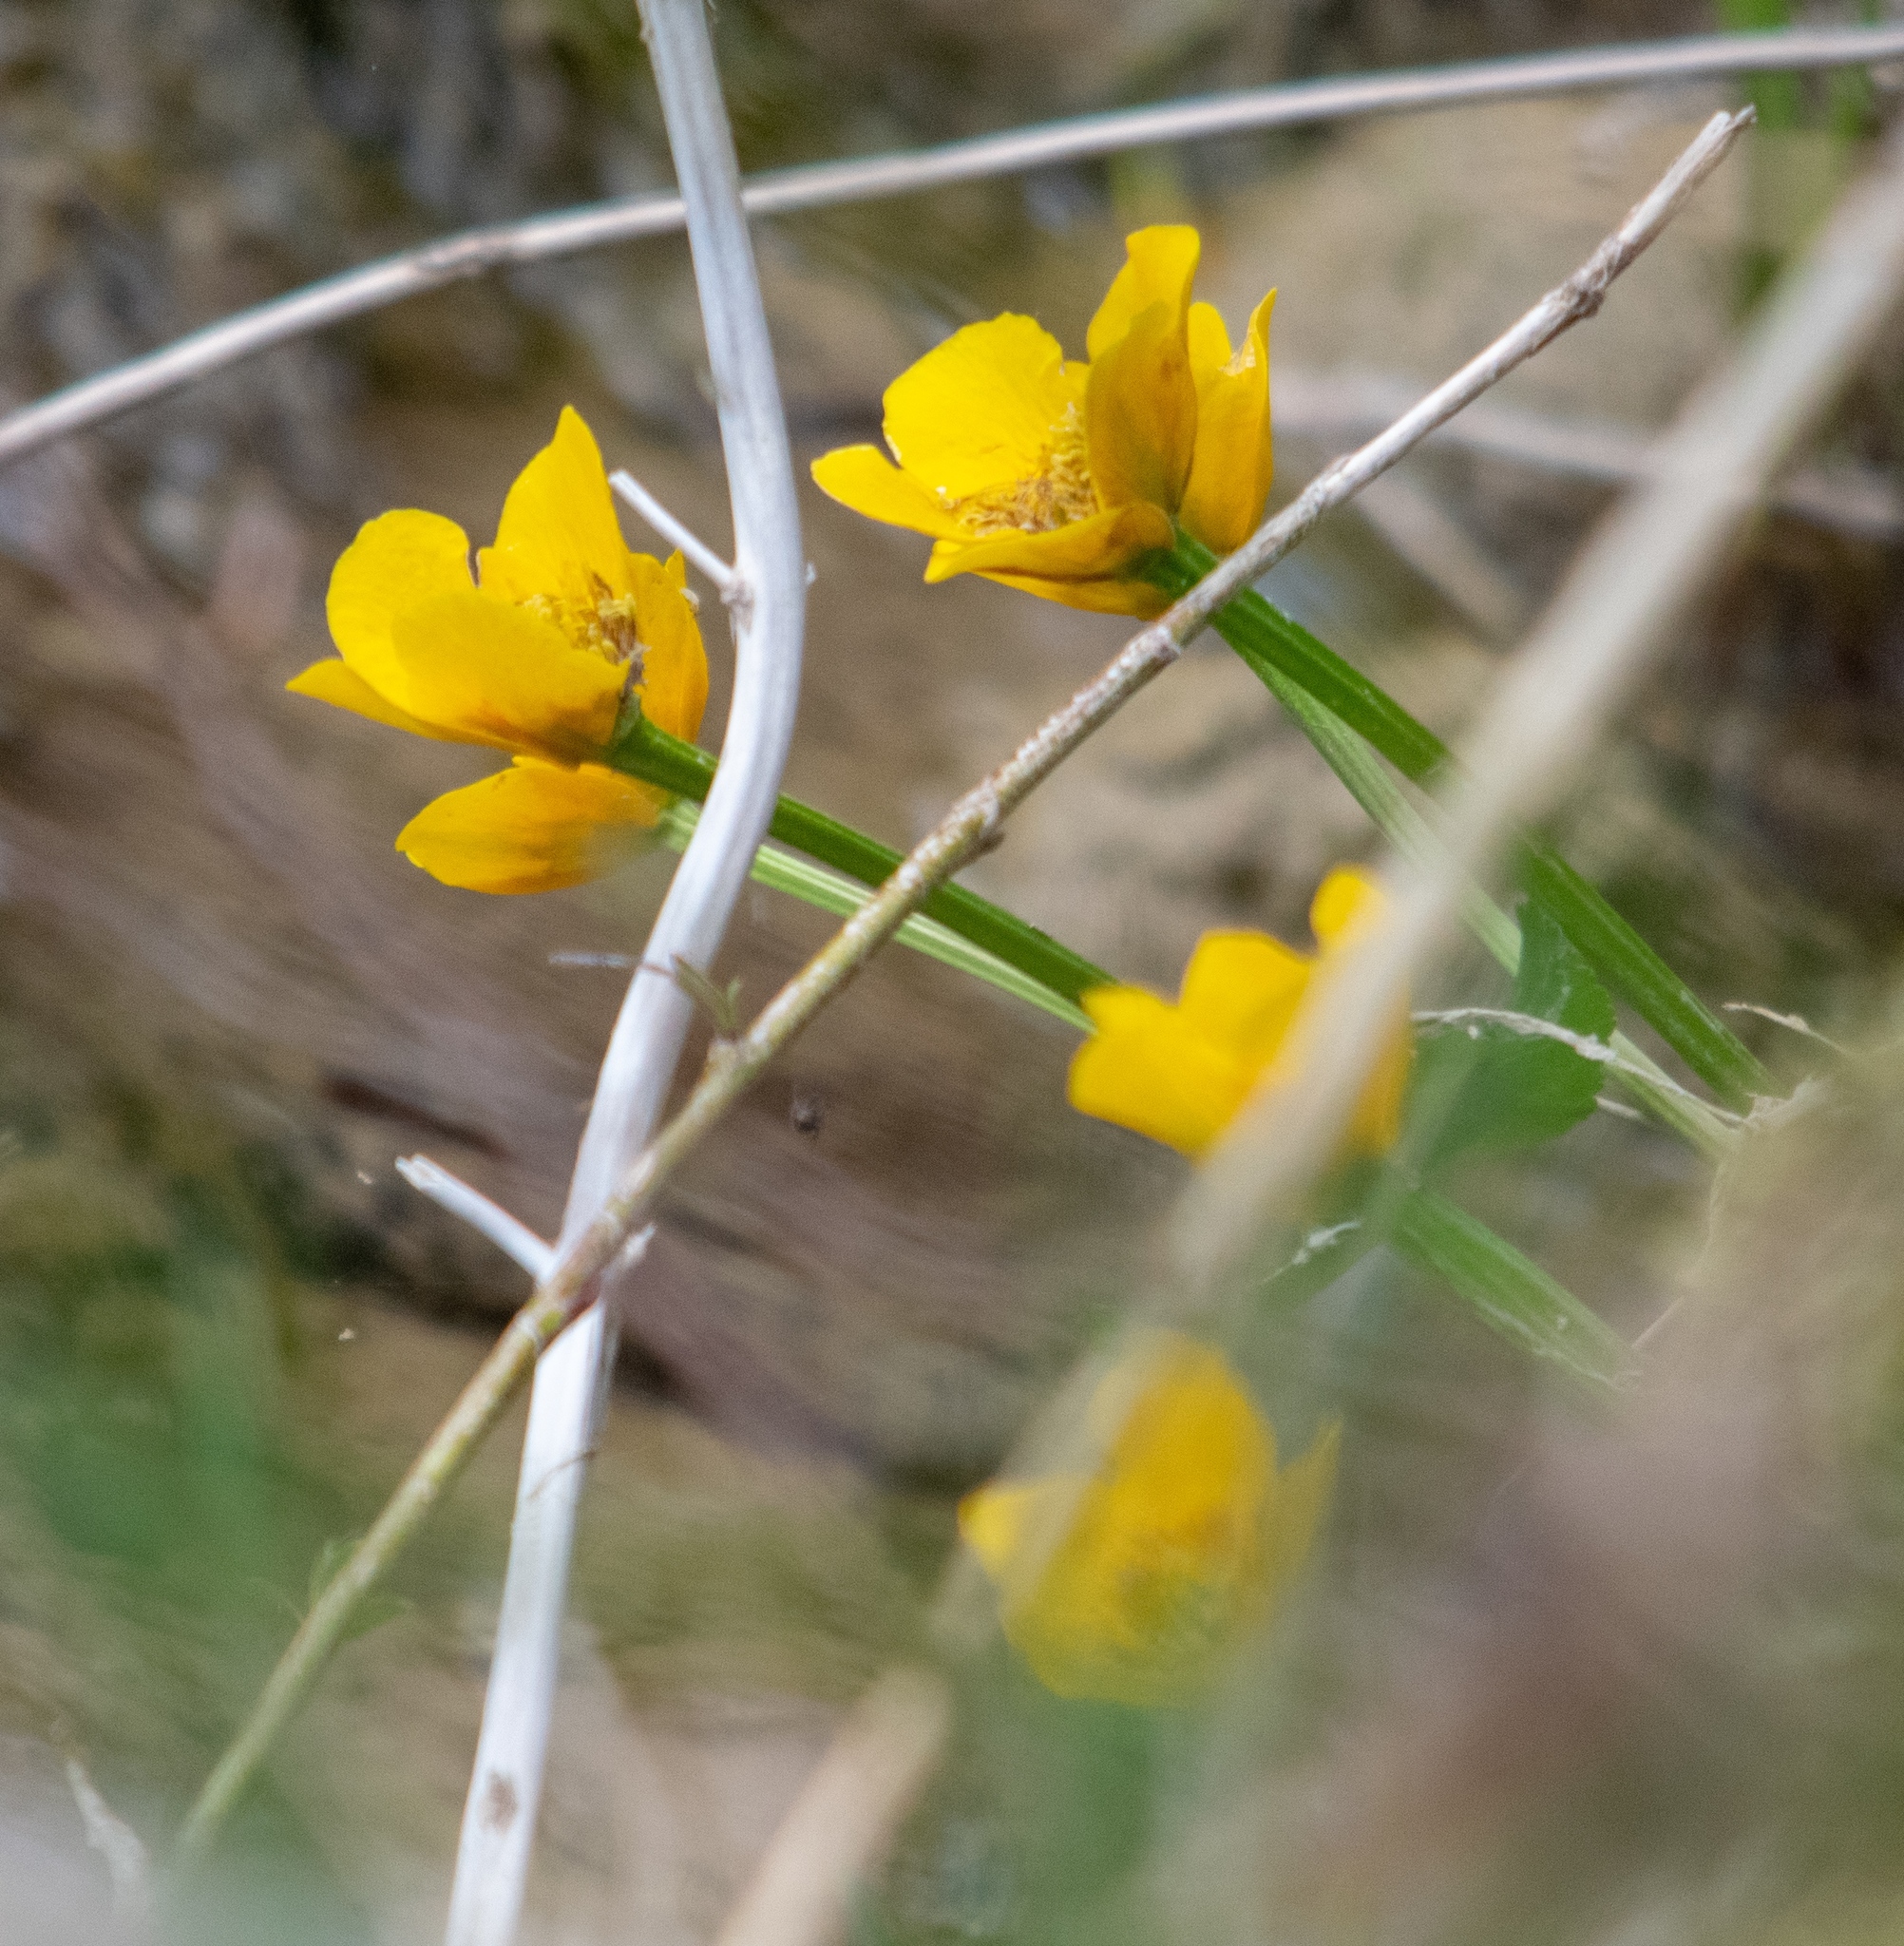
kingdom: Plantae
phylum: Tracheophyta
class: Magnoliopsida
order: Ranunculales
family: Ranunculaceae
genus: Caltha
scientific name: Caltha palustris
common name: Marsh marigold
